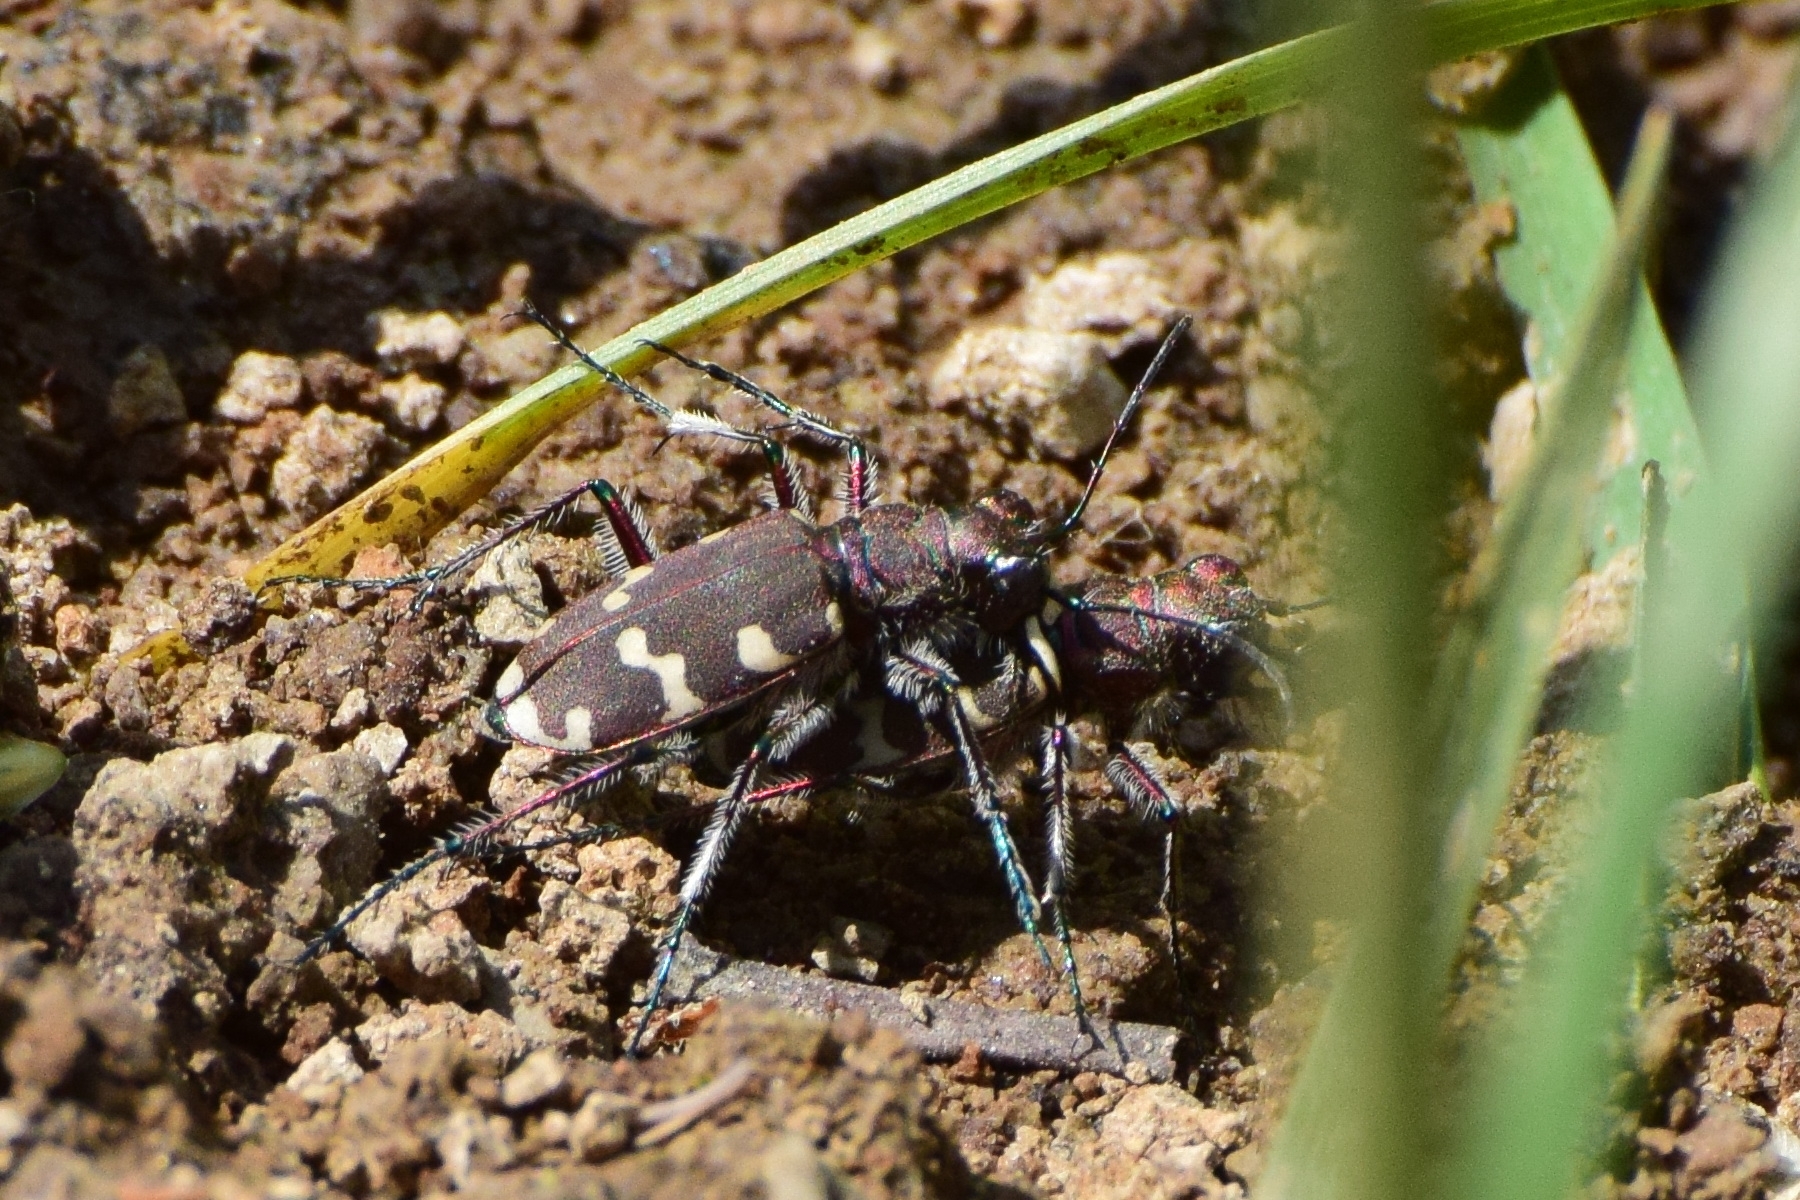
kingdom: Animalia
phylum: Arthropoda
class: Insecta
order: Coleoptera
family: Carabidae
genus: Cicindela
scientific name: Cicindela hybrida
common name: Northern dune tiger beetle
